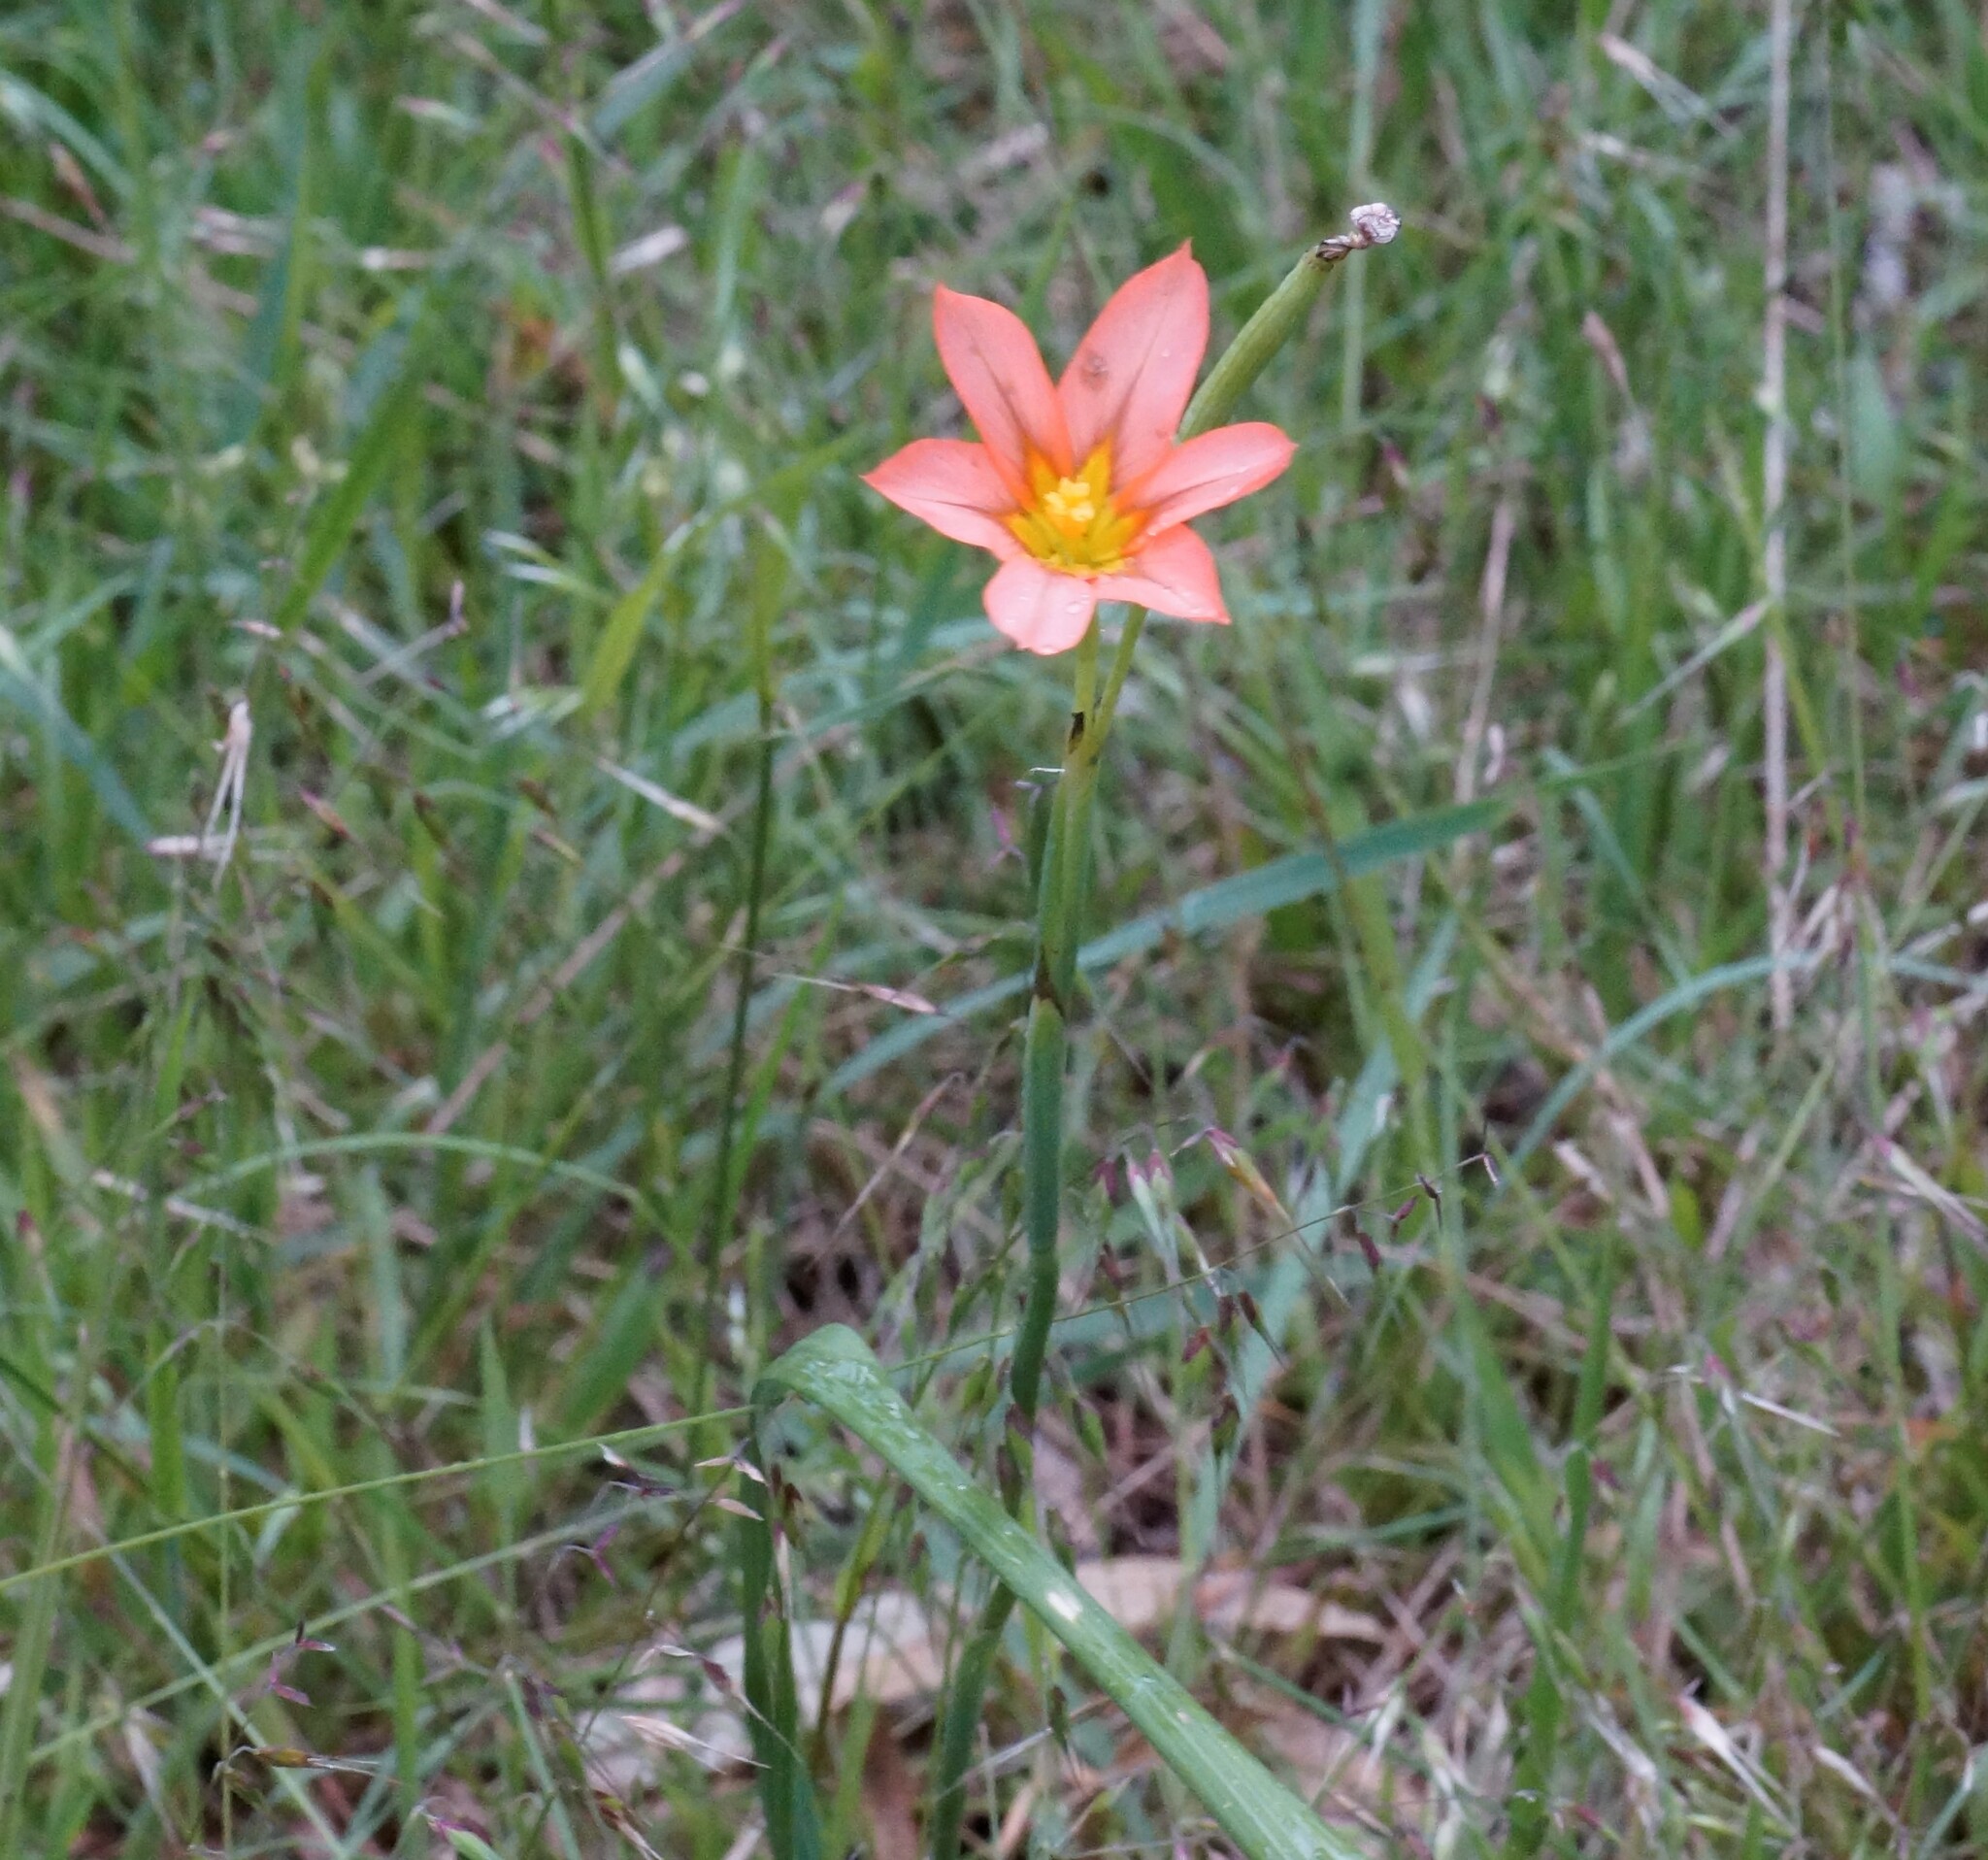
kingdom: Plantae
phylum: Tracheophyta
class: Liliopsida
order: Asparagales
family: Iridaceae
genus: Moraea
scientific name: Moraea flaccida
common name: One-leaf cape-tulip
